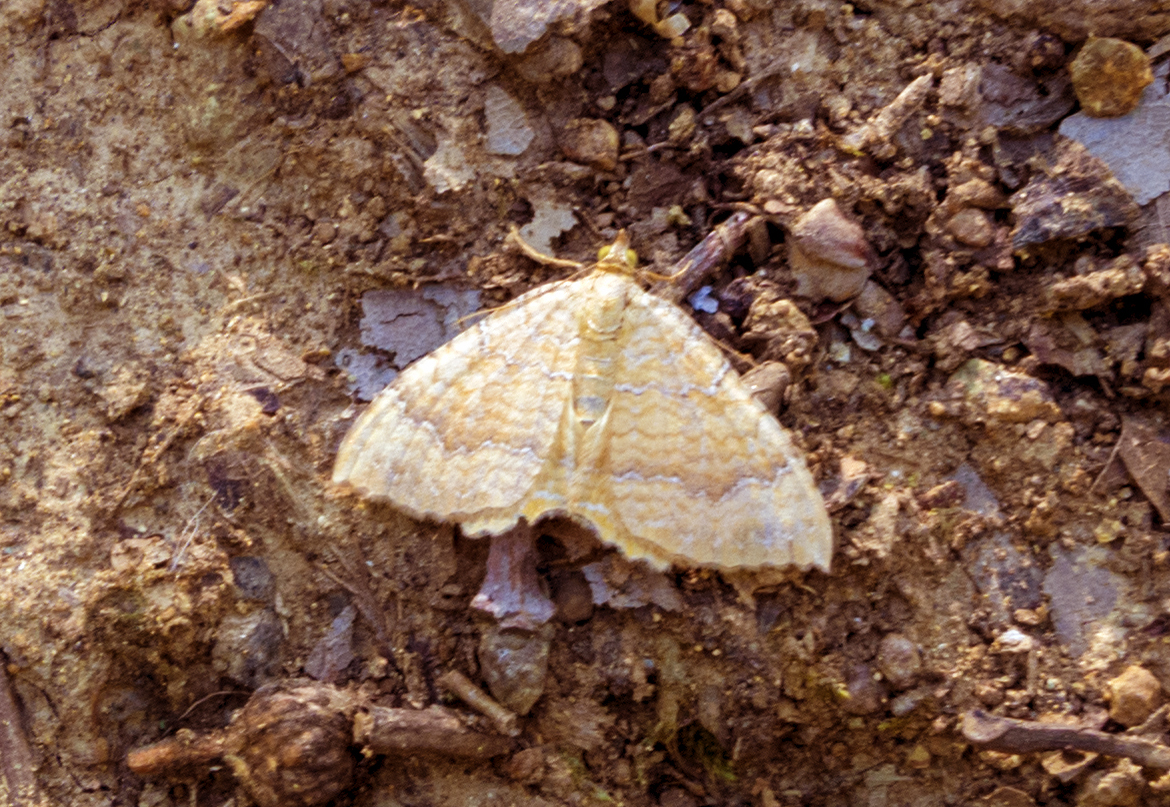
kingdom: Animalia
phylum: Arthropoda
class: Insecta
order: Lepidoptera
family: Geometridae
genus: Camptogramma
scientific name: Camptogramma bilineata
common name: Yellow shell
